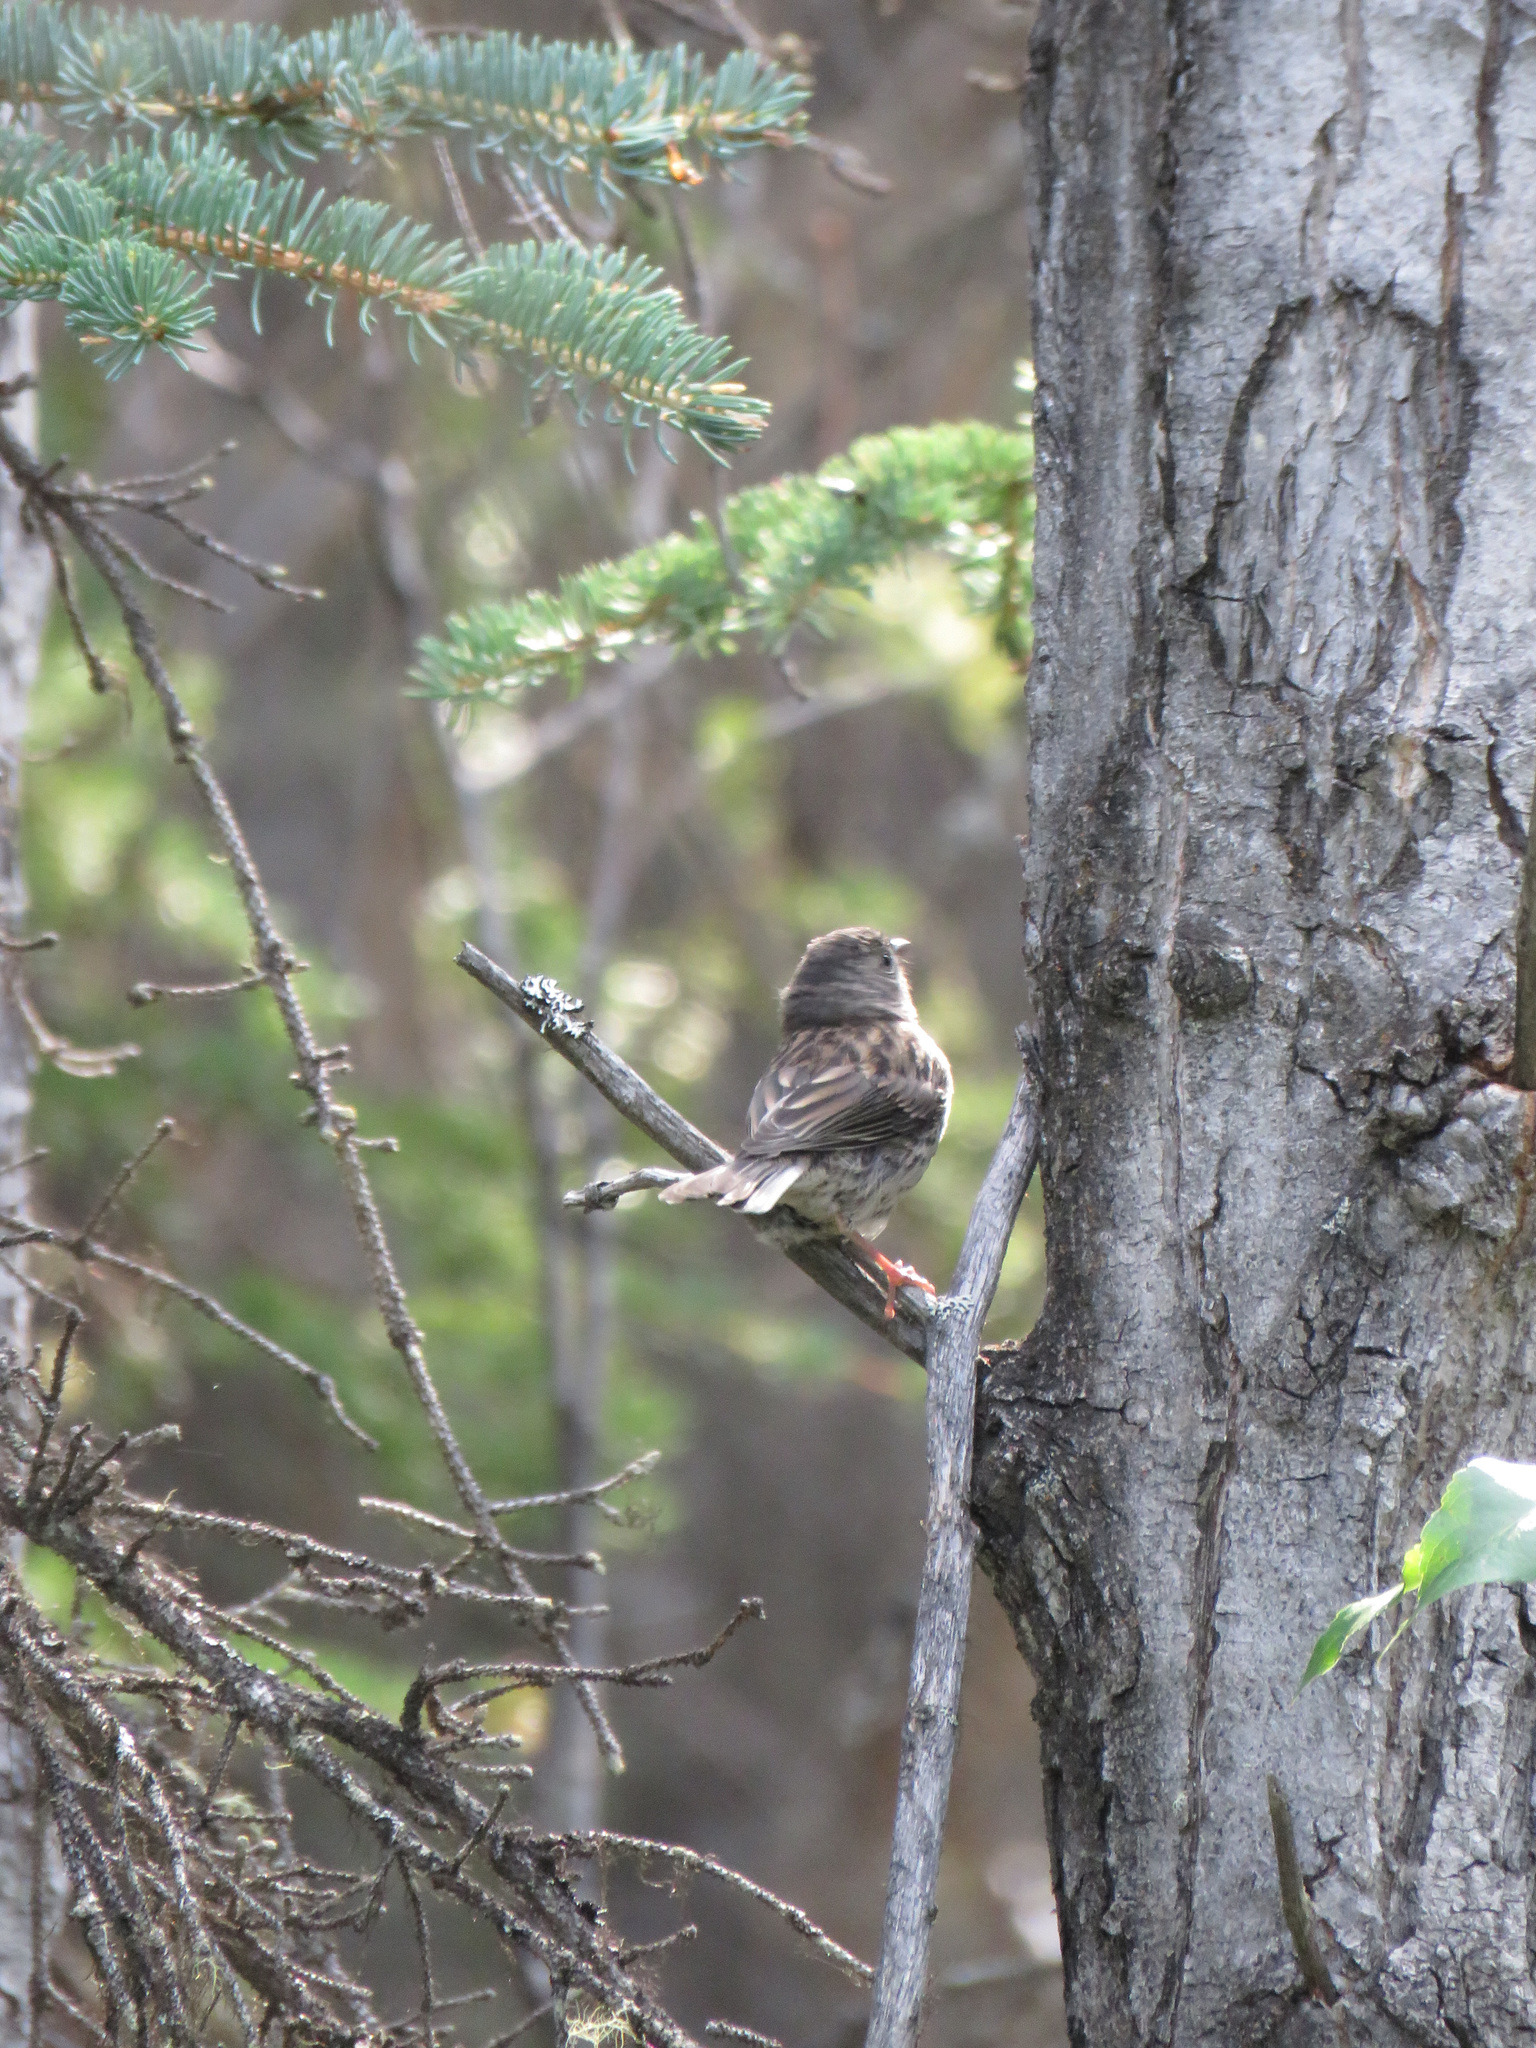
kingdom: Animalia
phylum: Chordata
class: Aves
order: Passeriformes
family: Passerellidae
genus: Junco
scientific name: Junco hyemalis
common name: Dark-eyed junco
